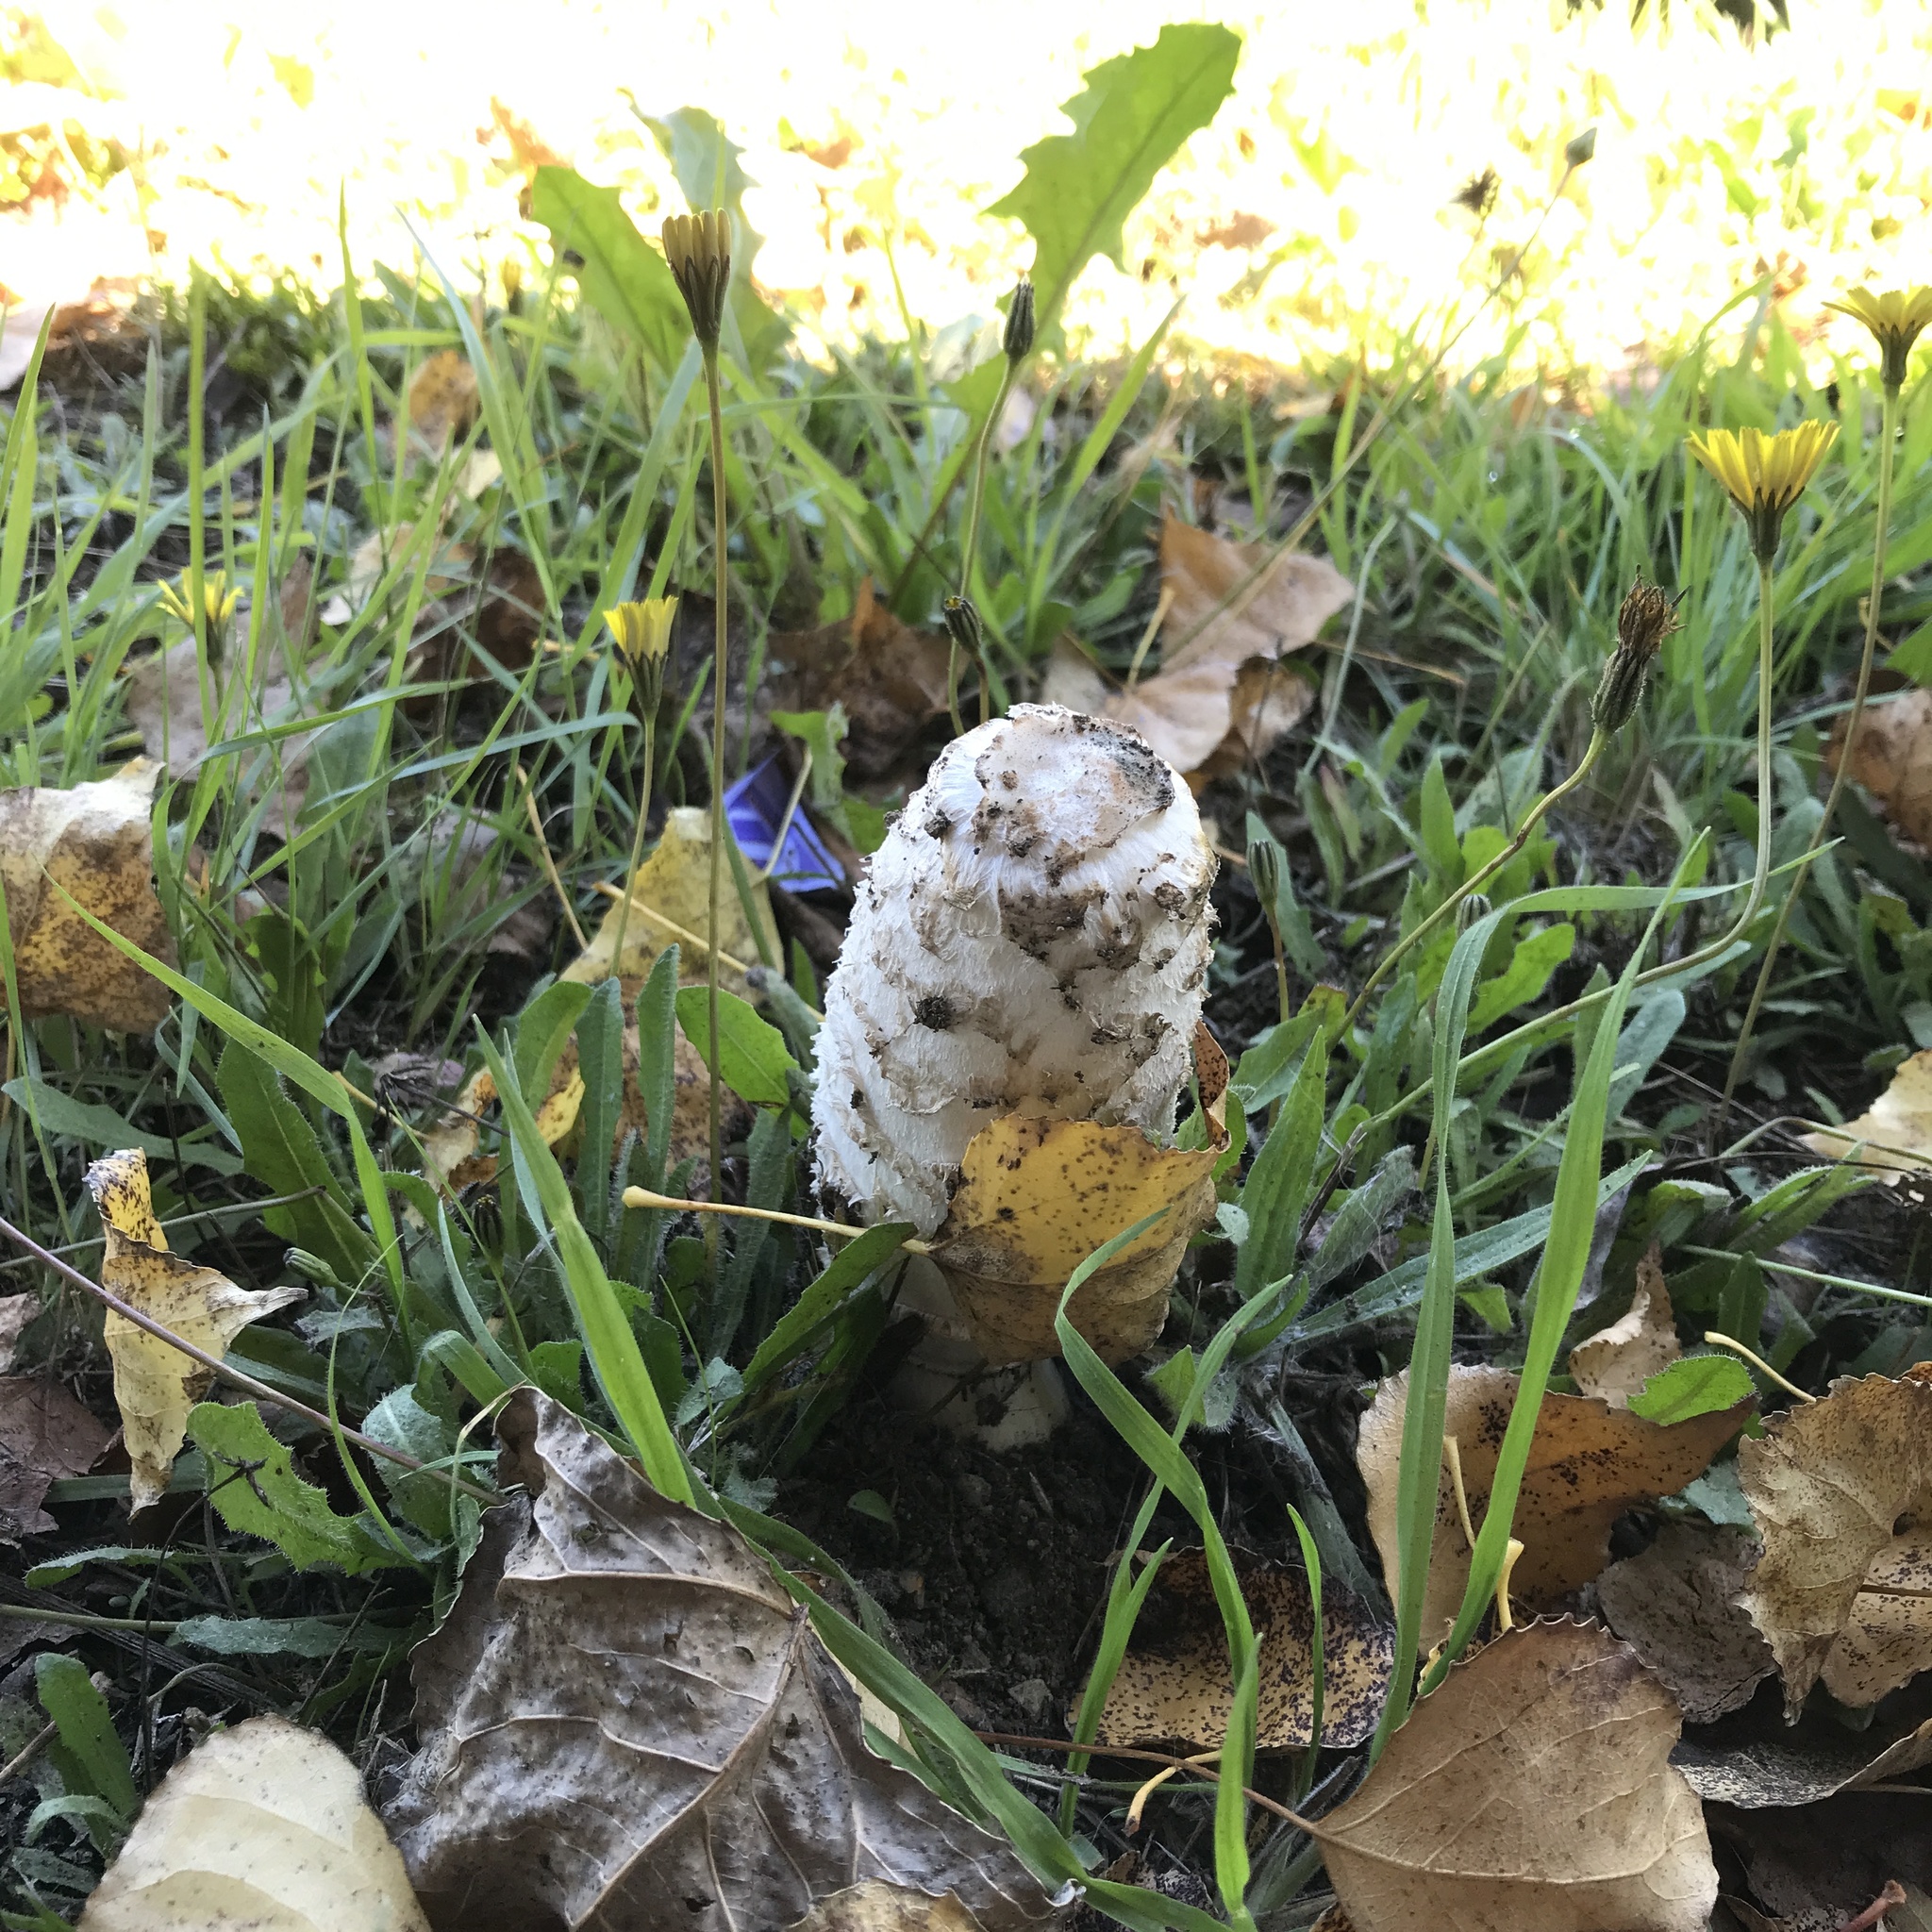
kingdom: Fungi
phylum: Basidiomycota
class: Agaricomycetes
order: Agaricales
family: Agaricaceae
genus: Coprinus
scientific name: Coprinus comatus
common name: Lawyer's wig
